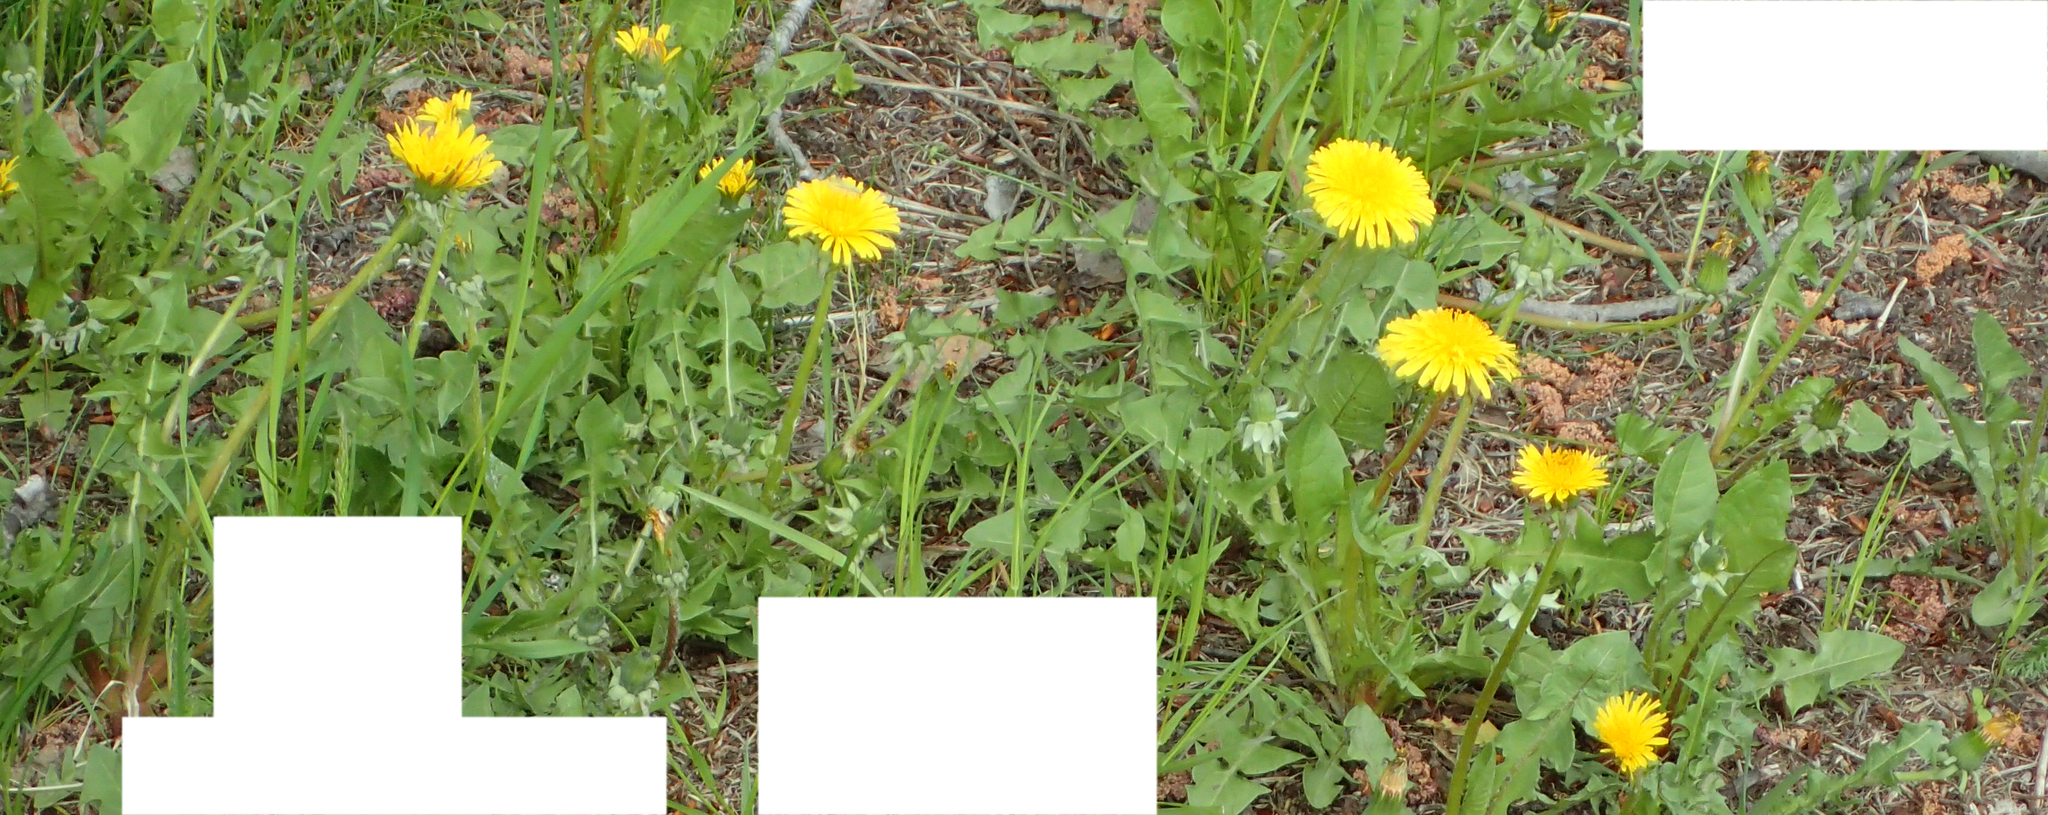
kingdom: Plantae
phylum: Tracheophyta
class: Magnoliopsida
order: Asterales
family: Asteraceae
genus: Taraxacum
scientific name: Taraxacum officinale
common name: Common dandelion
